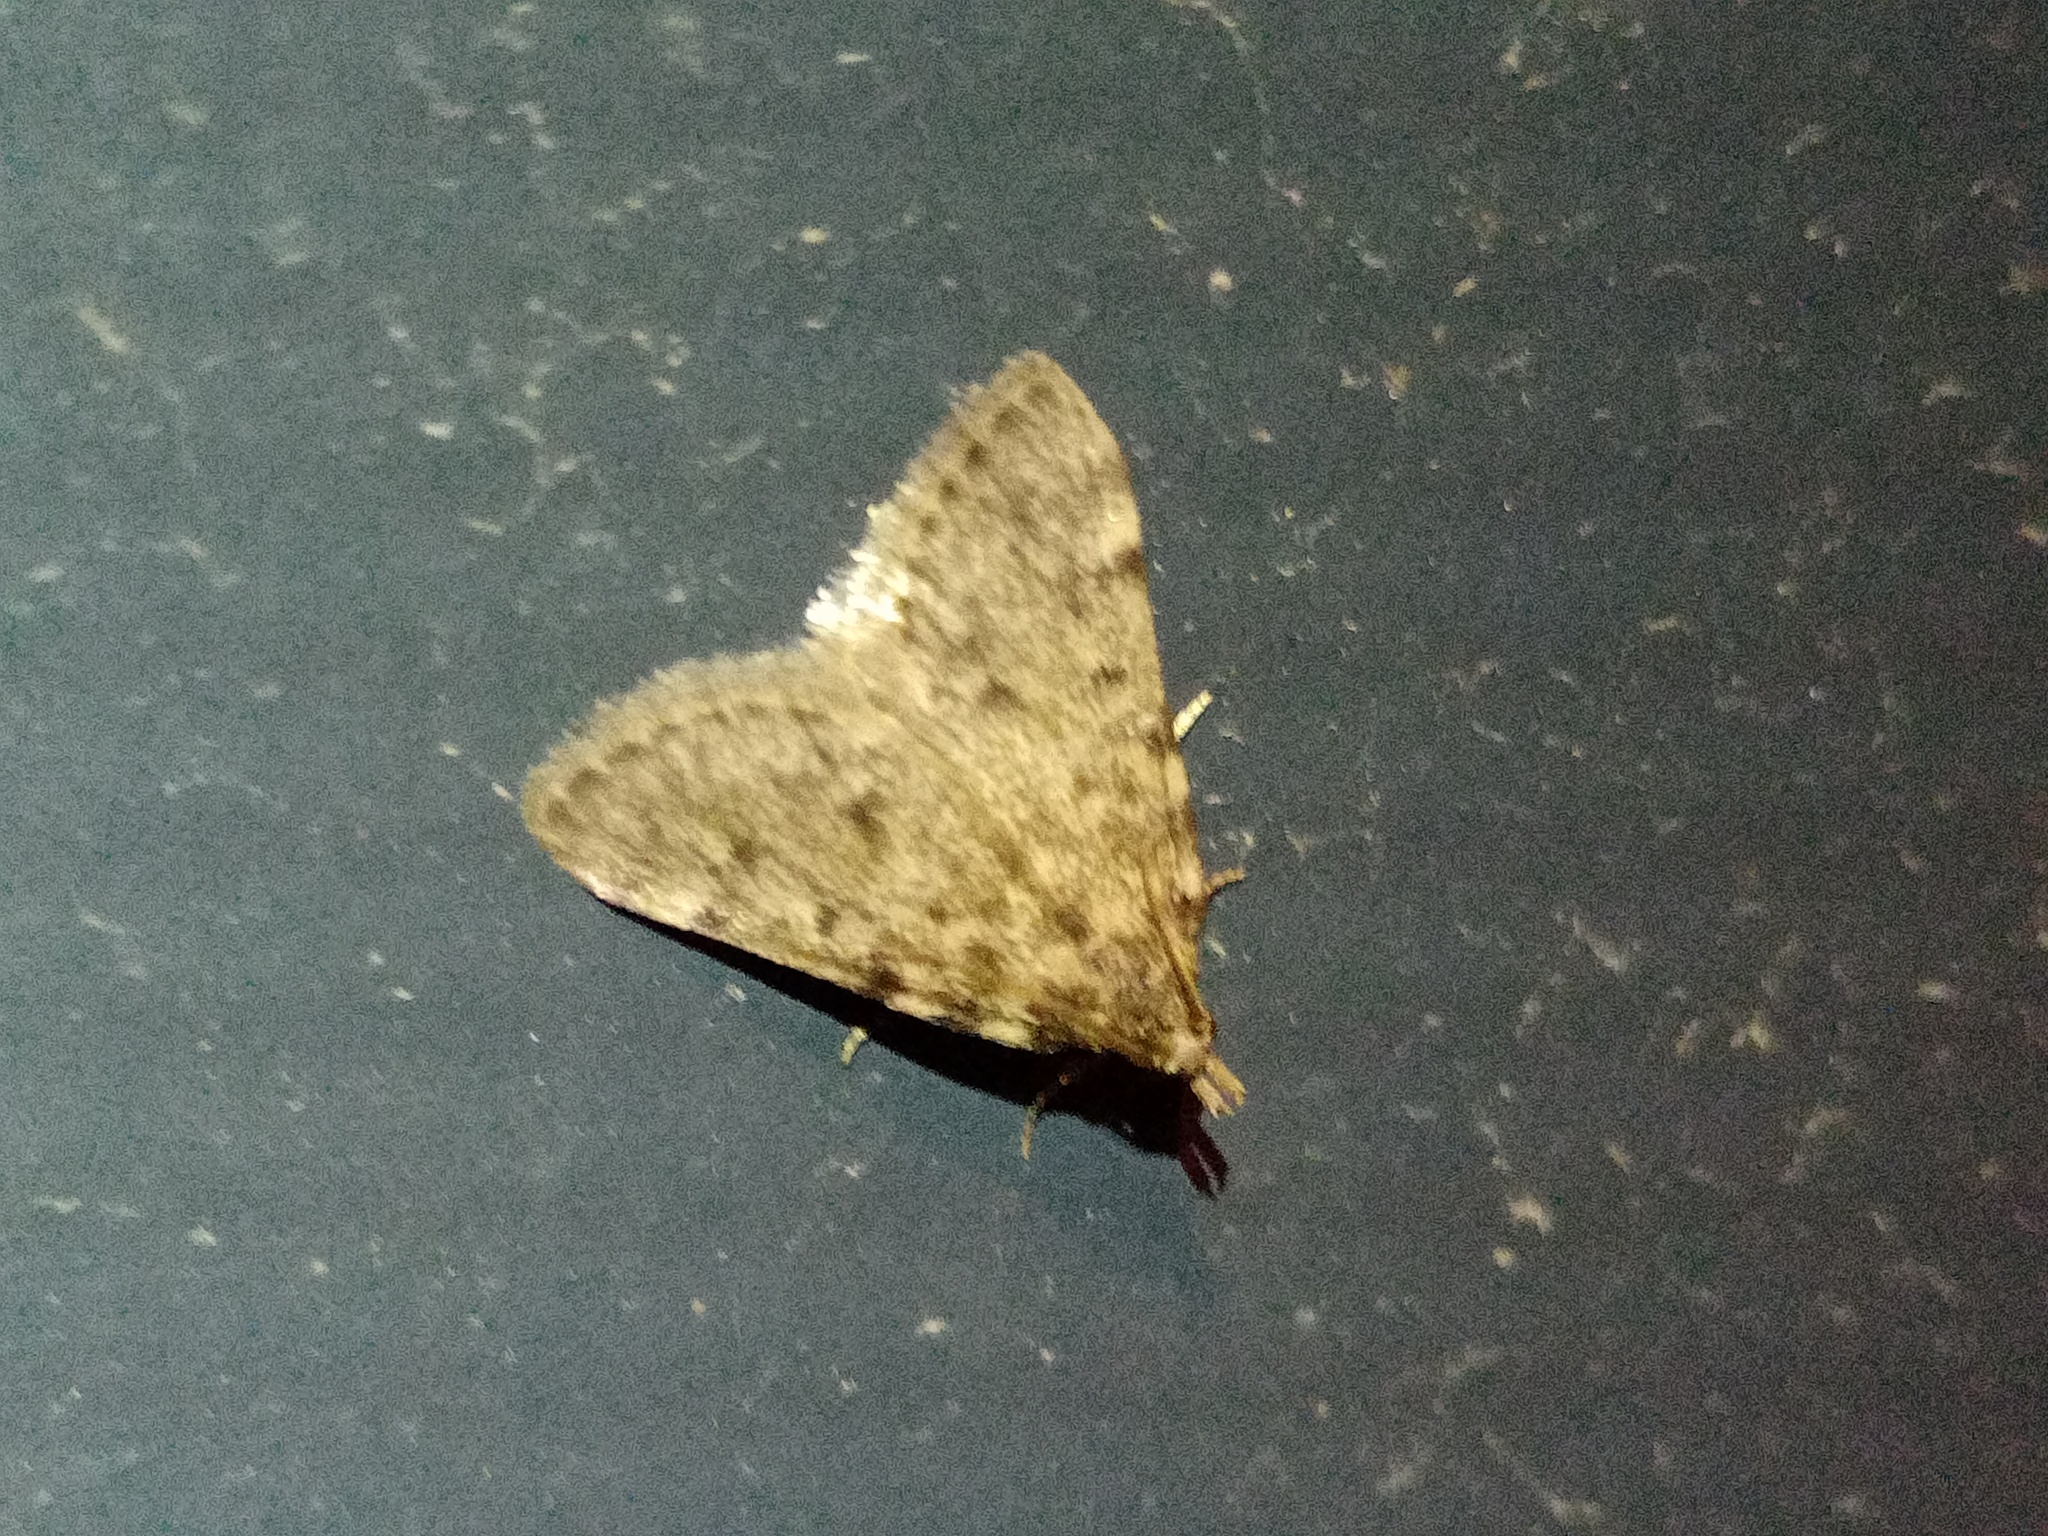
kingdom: Animalia
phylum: Arthropoda
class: Insecta
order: Lepidoptera
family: Pyralidae
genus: Aglossa
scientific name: Aglossa pinguinalis
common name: Large tabby
